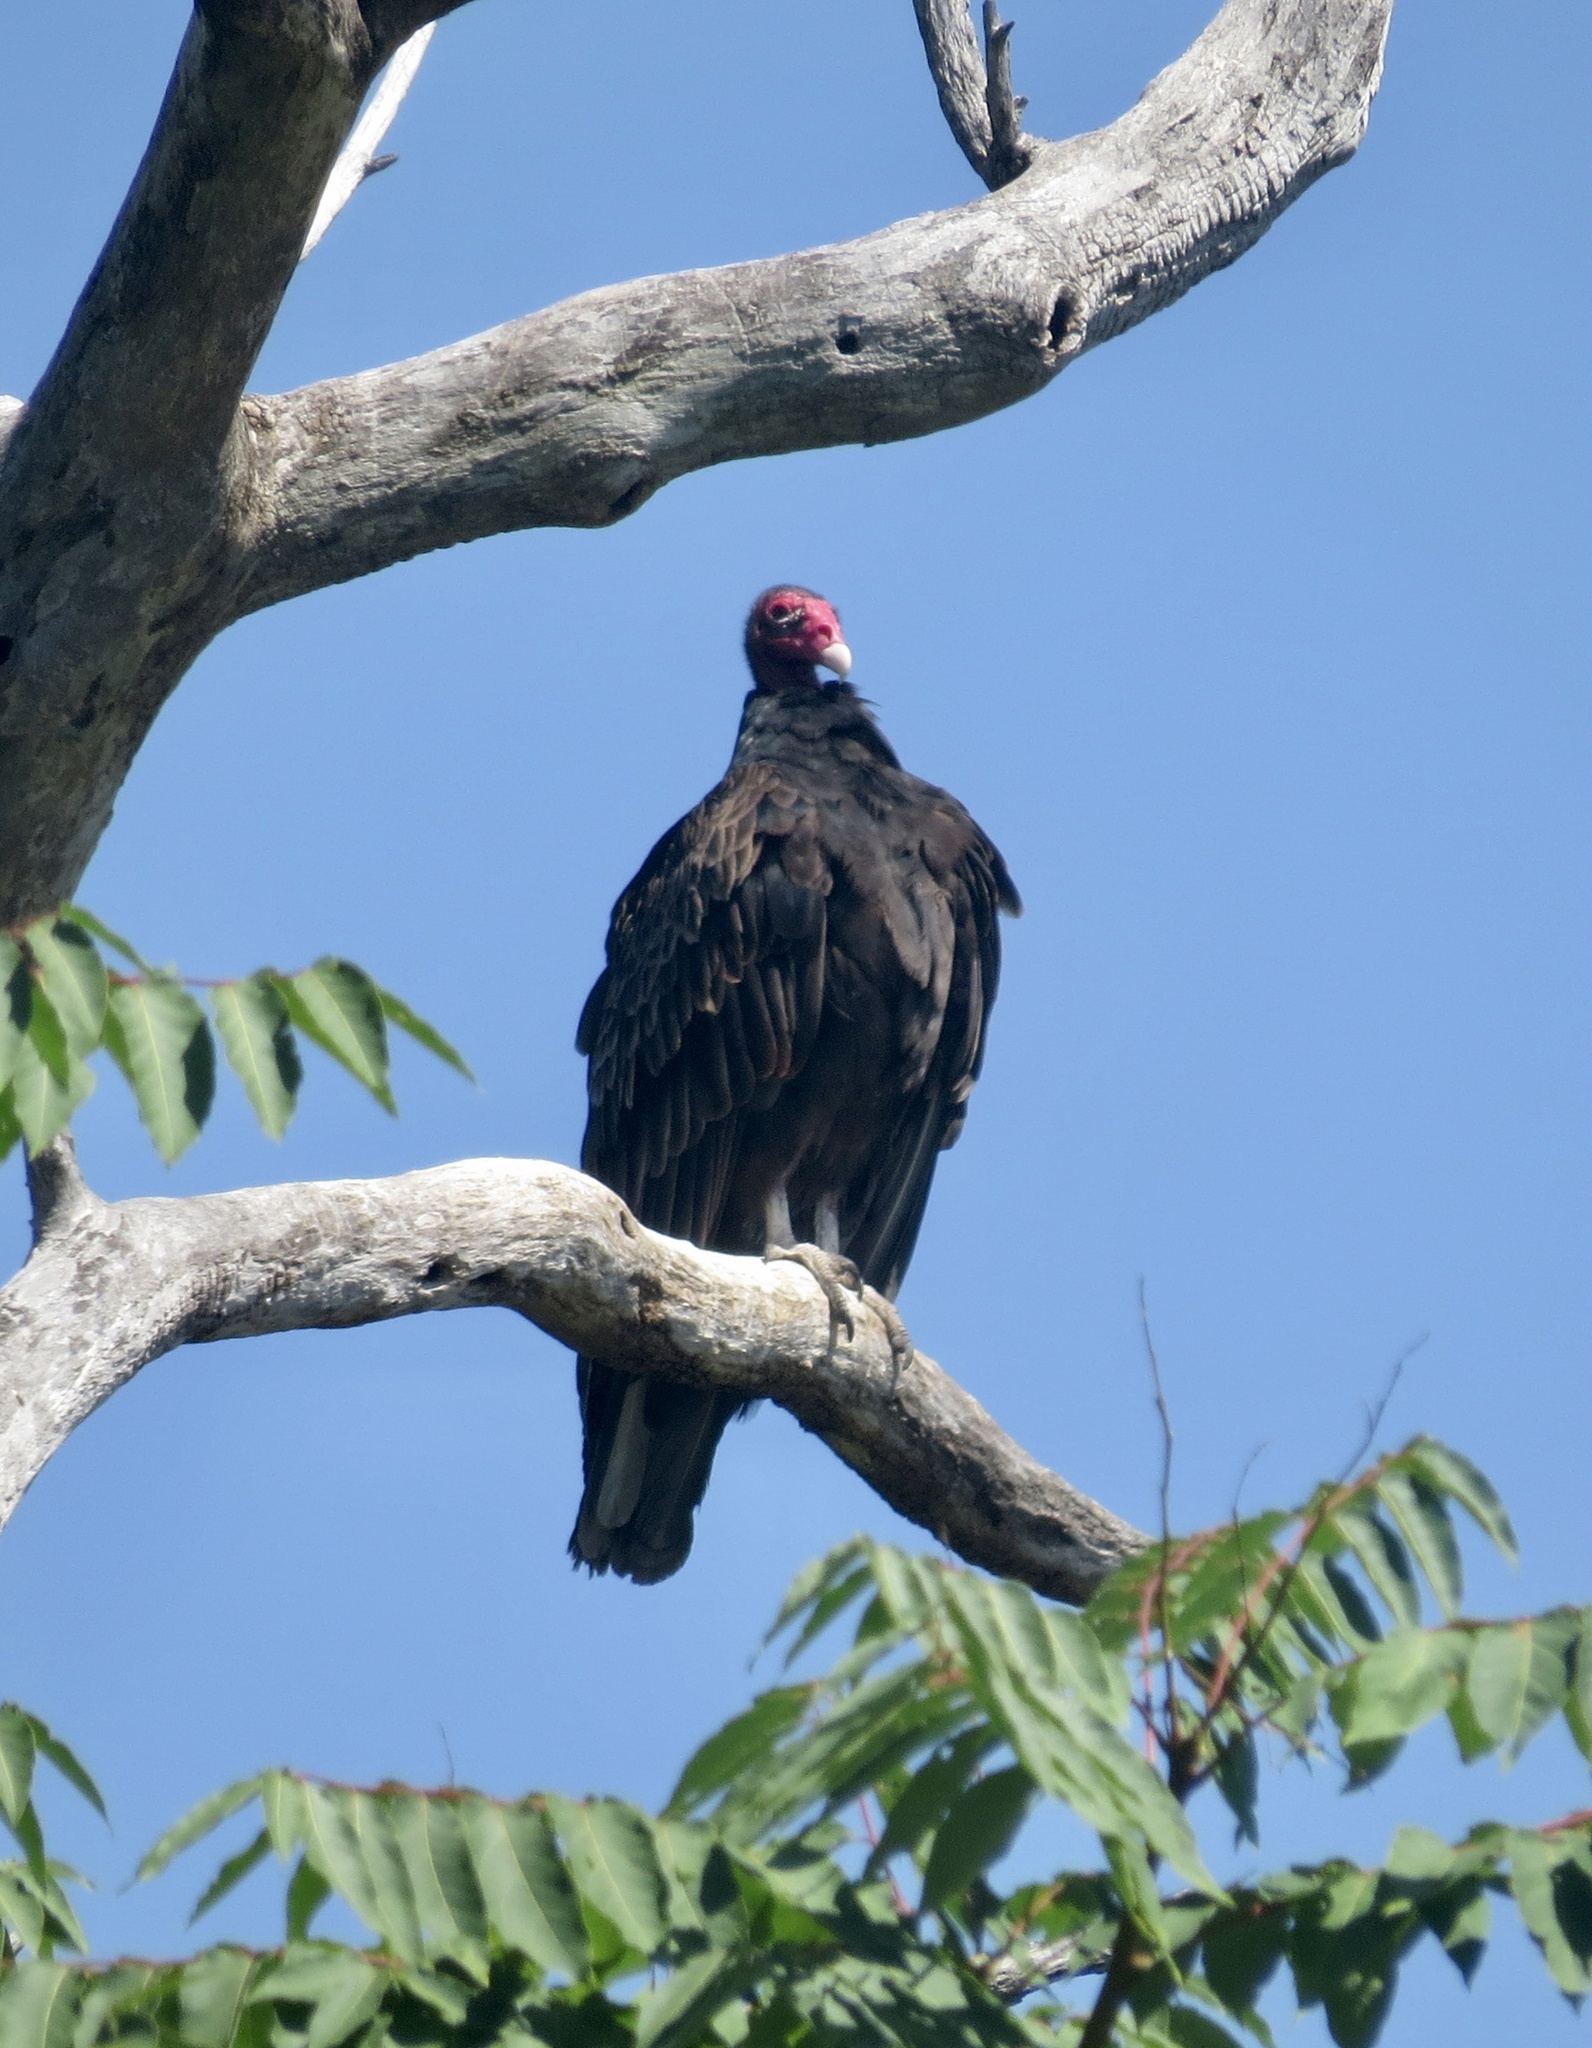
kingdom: Animalia
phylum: Chordata
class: Aves
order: Accipitriformes
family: Cathartidae
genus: Cathartes
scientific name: Cathartes aura
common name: Turkey vulture
